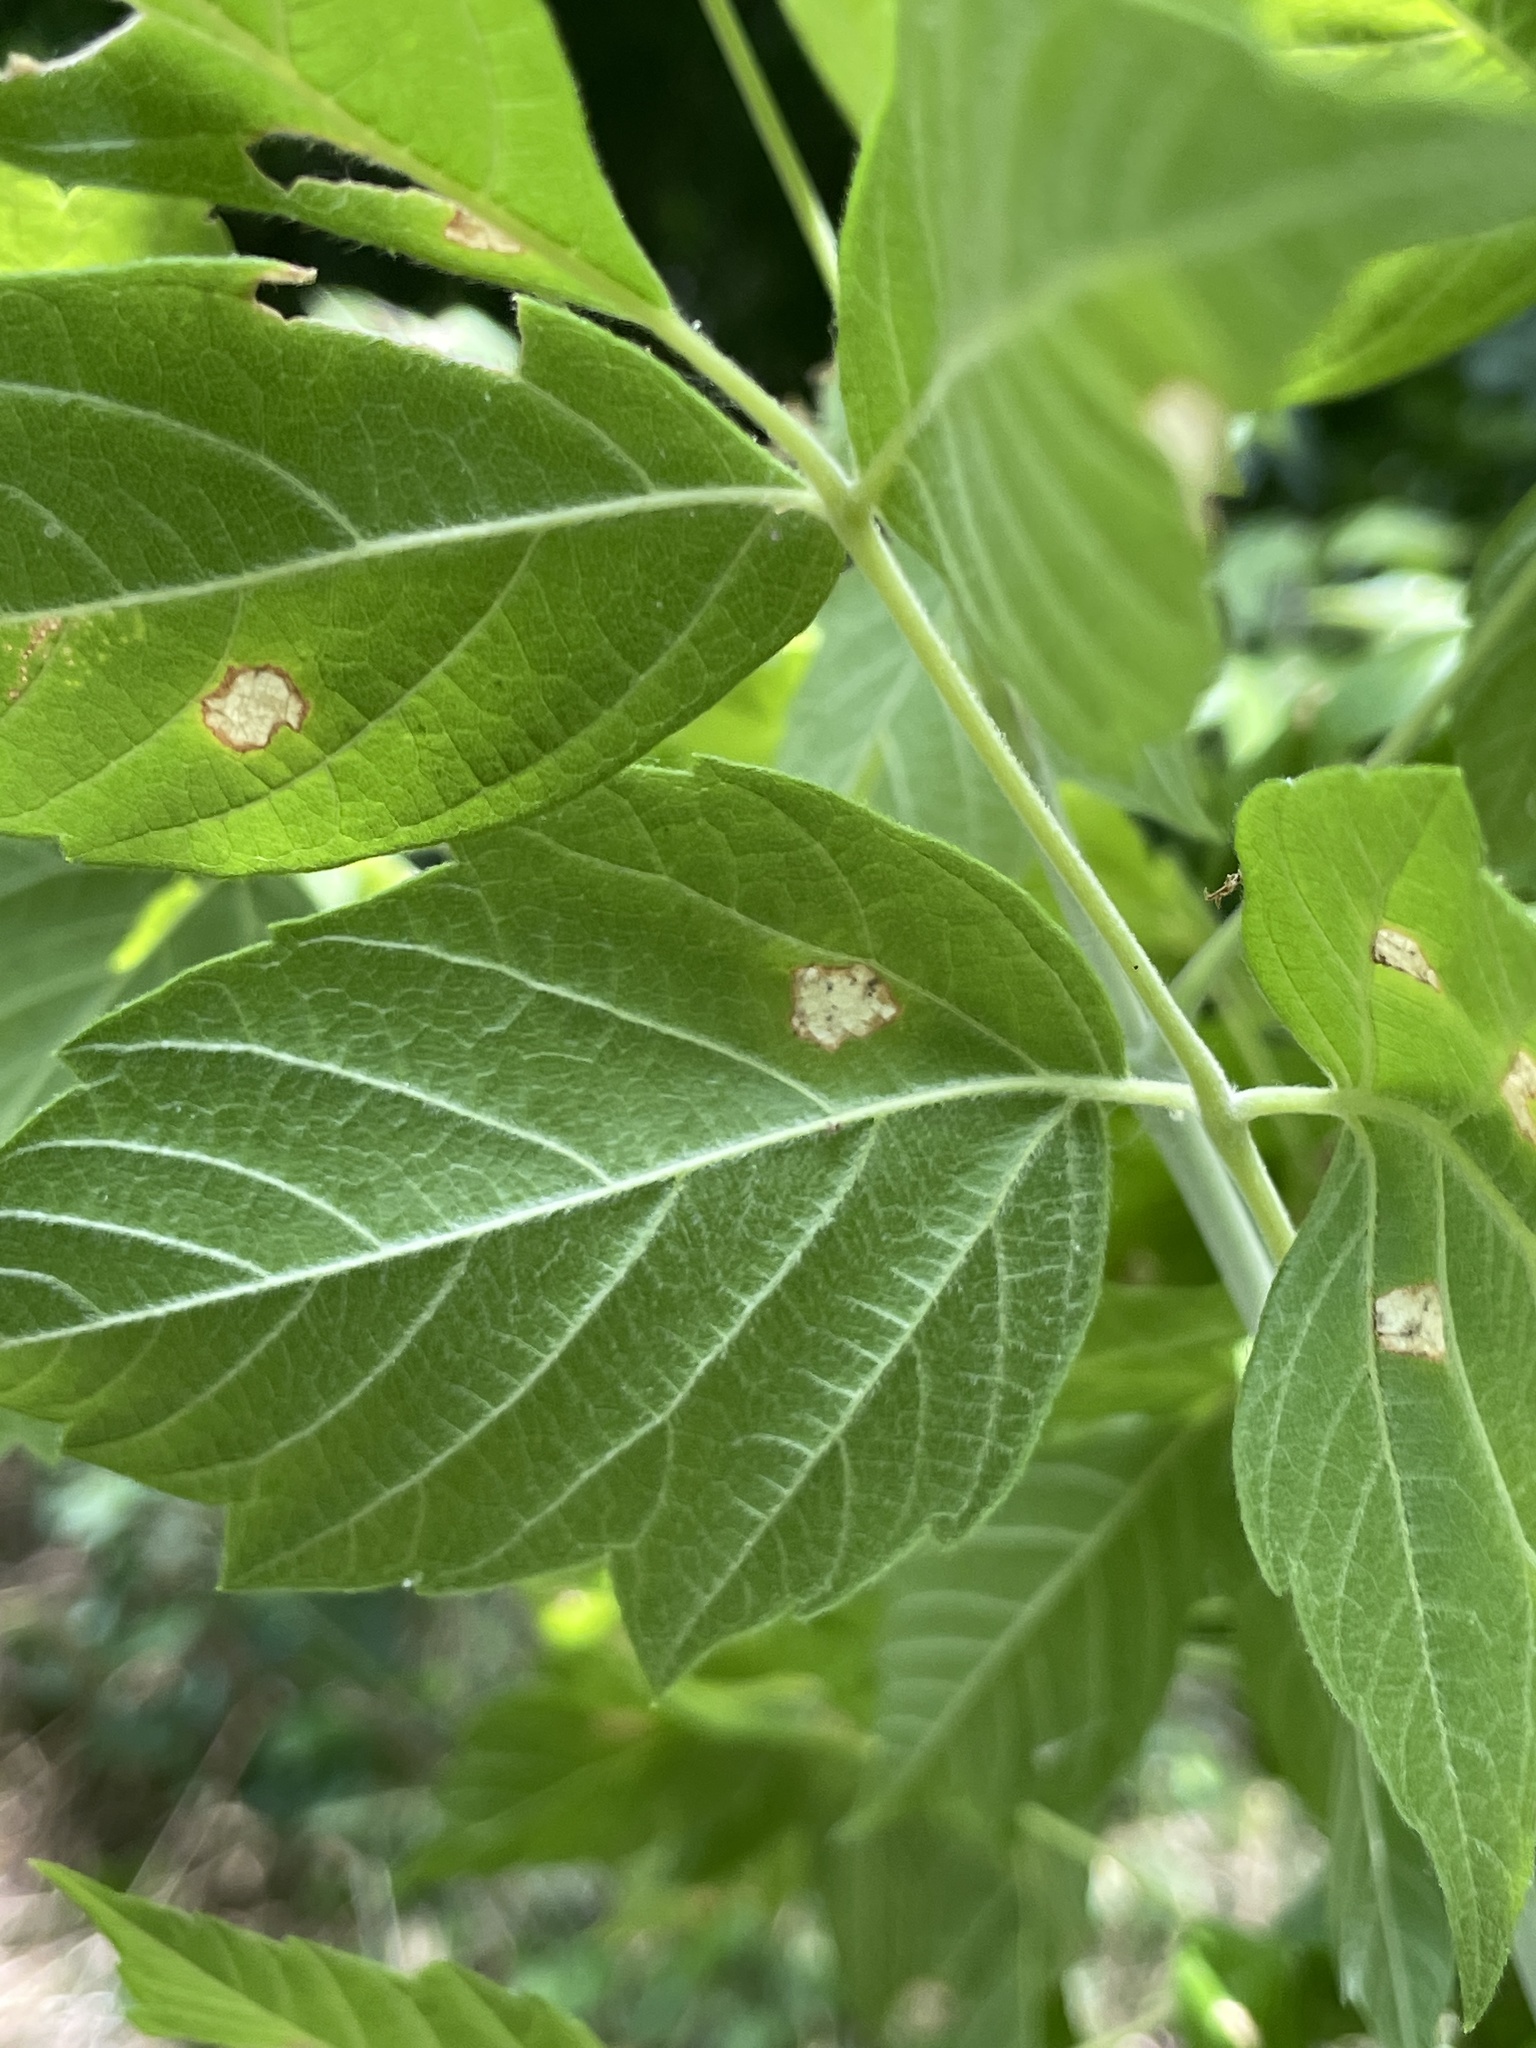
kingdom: Plantae
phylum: Tracheophyta
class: Magnoliopsida
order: Sapindales
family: Sapindaceae
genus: Acer
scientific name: Acer negundo
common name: Ashleaf maple
